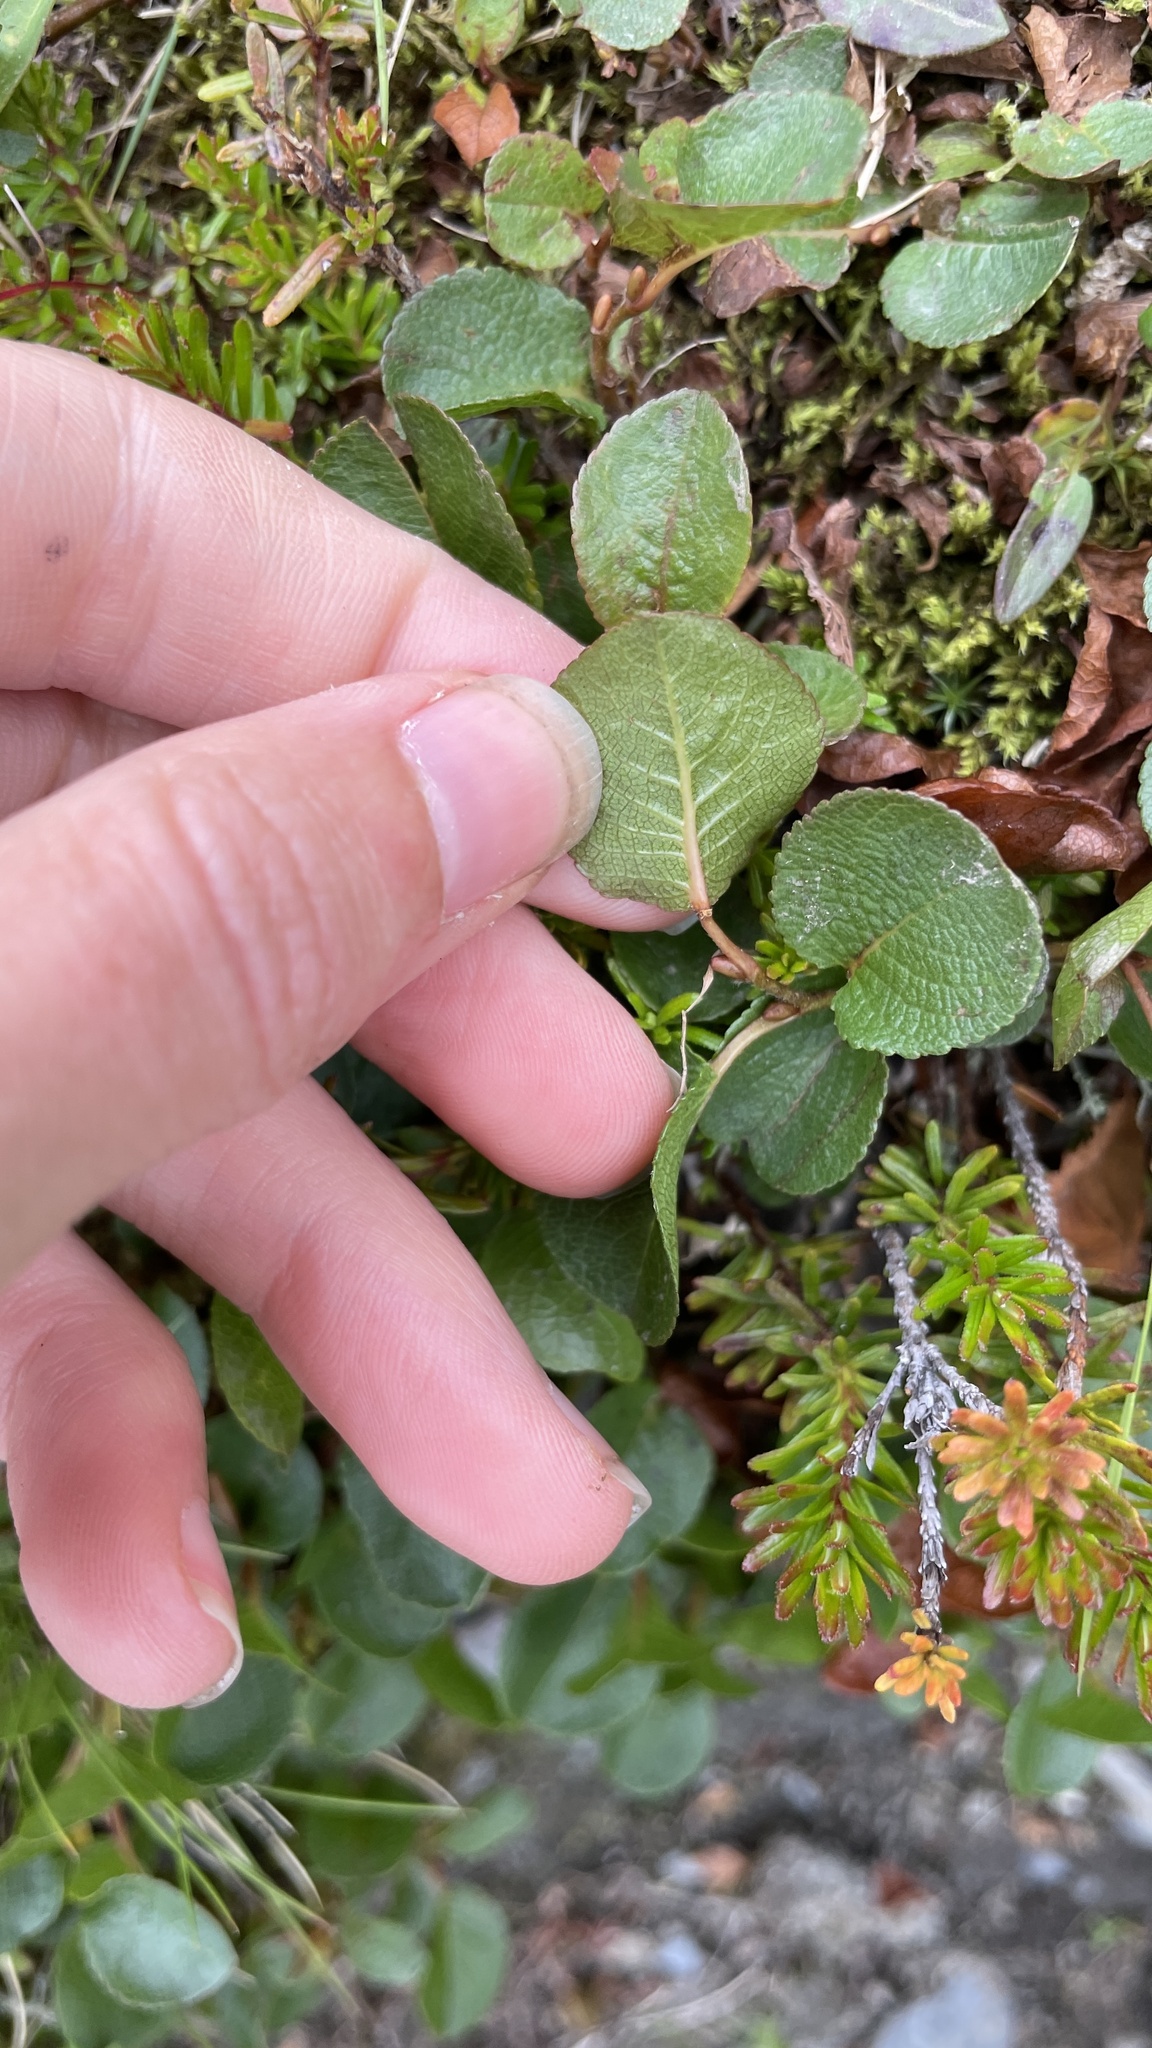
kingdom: Plantae
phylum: Tracheophyta
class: Magnoliopsida
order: Malpighiales
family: Salicaceae
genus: Salix
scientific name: Salix herbacea
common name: Dwarf willow
